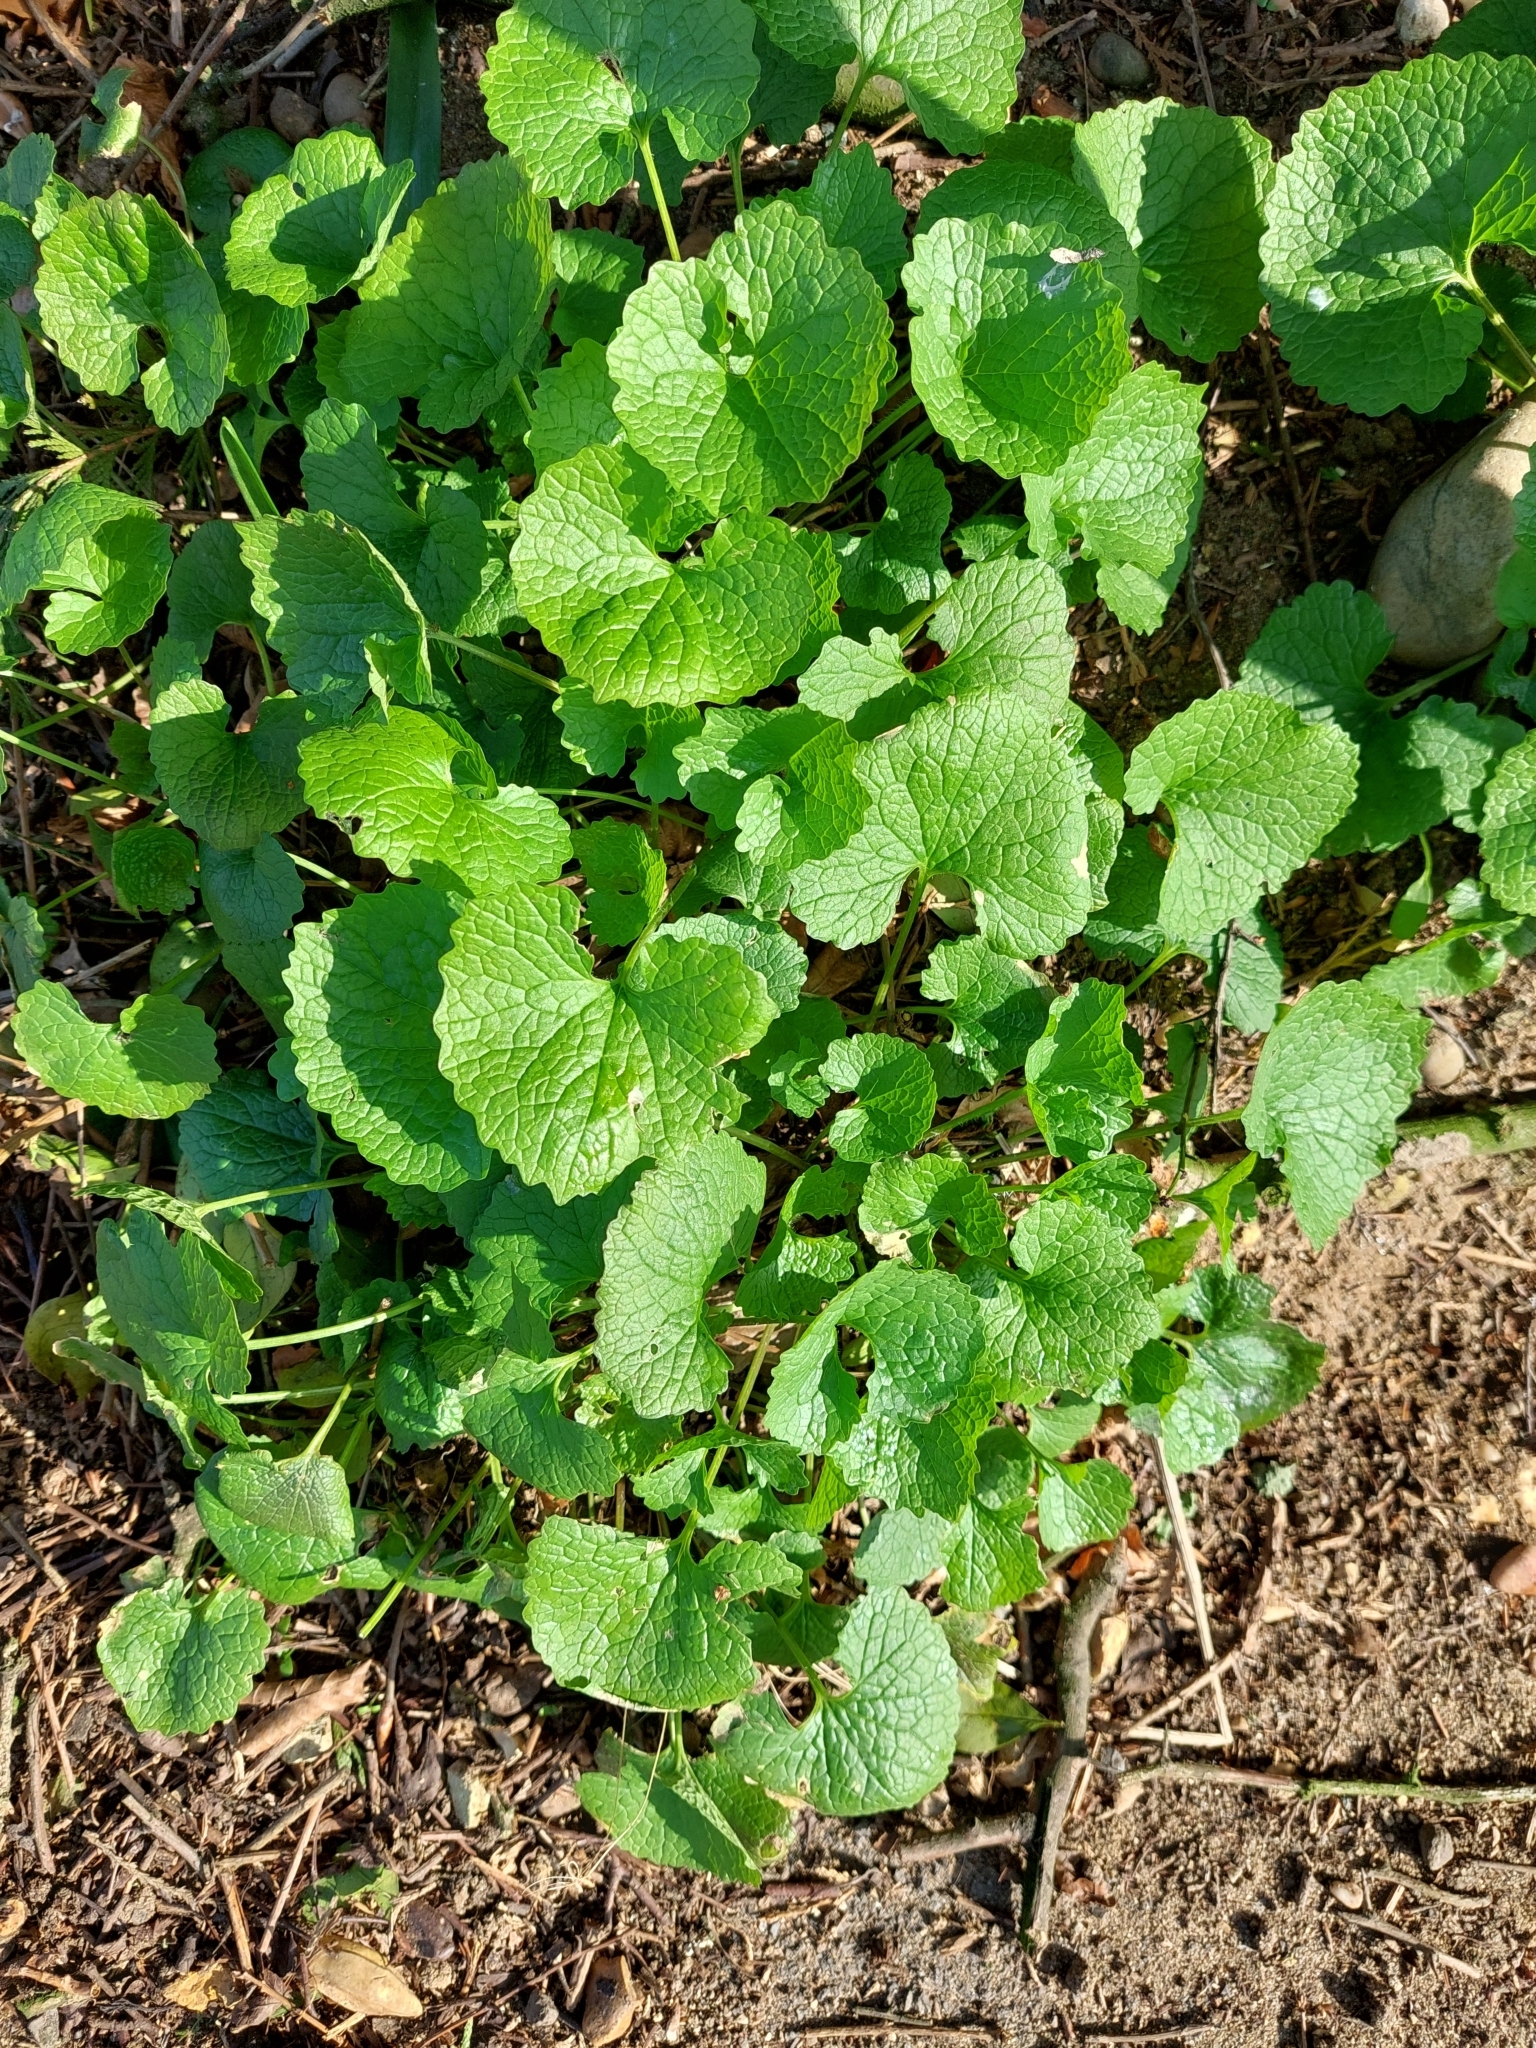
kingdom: Plantae
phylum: Tracheophyta
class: Magnoliopsida
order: Brassicales
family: Brassicaceae
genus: Alliaria
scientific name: Alliaria petiolata
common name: Garlic mustard
